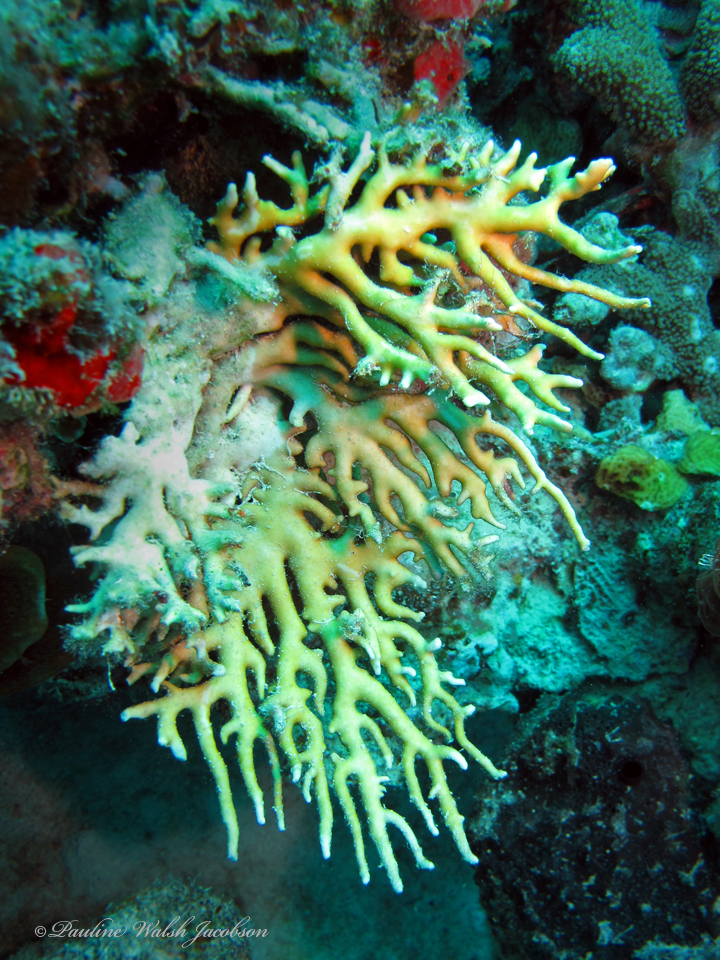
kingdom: Animalia
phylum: Cnidaria
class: Hydrozoa
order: Anthoathecata
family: Milleporidae
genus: Millepora
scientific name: Millepora alcicornis
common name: Branching fire coral
